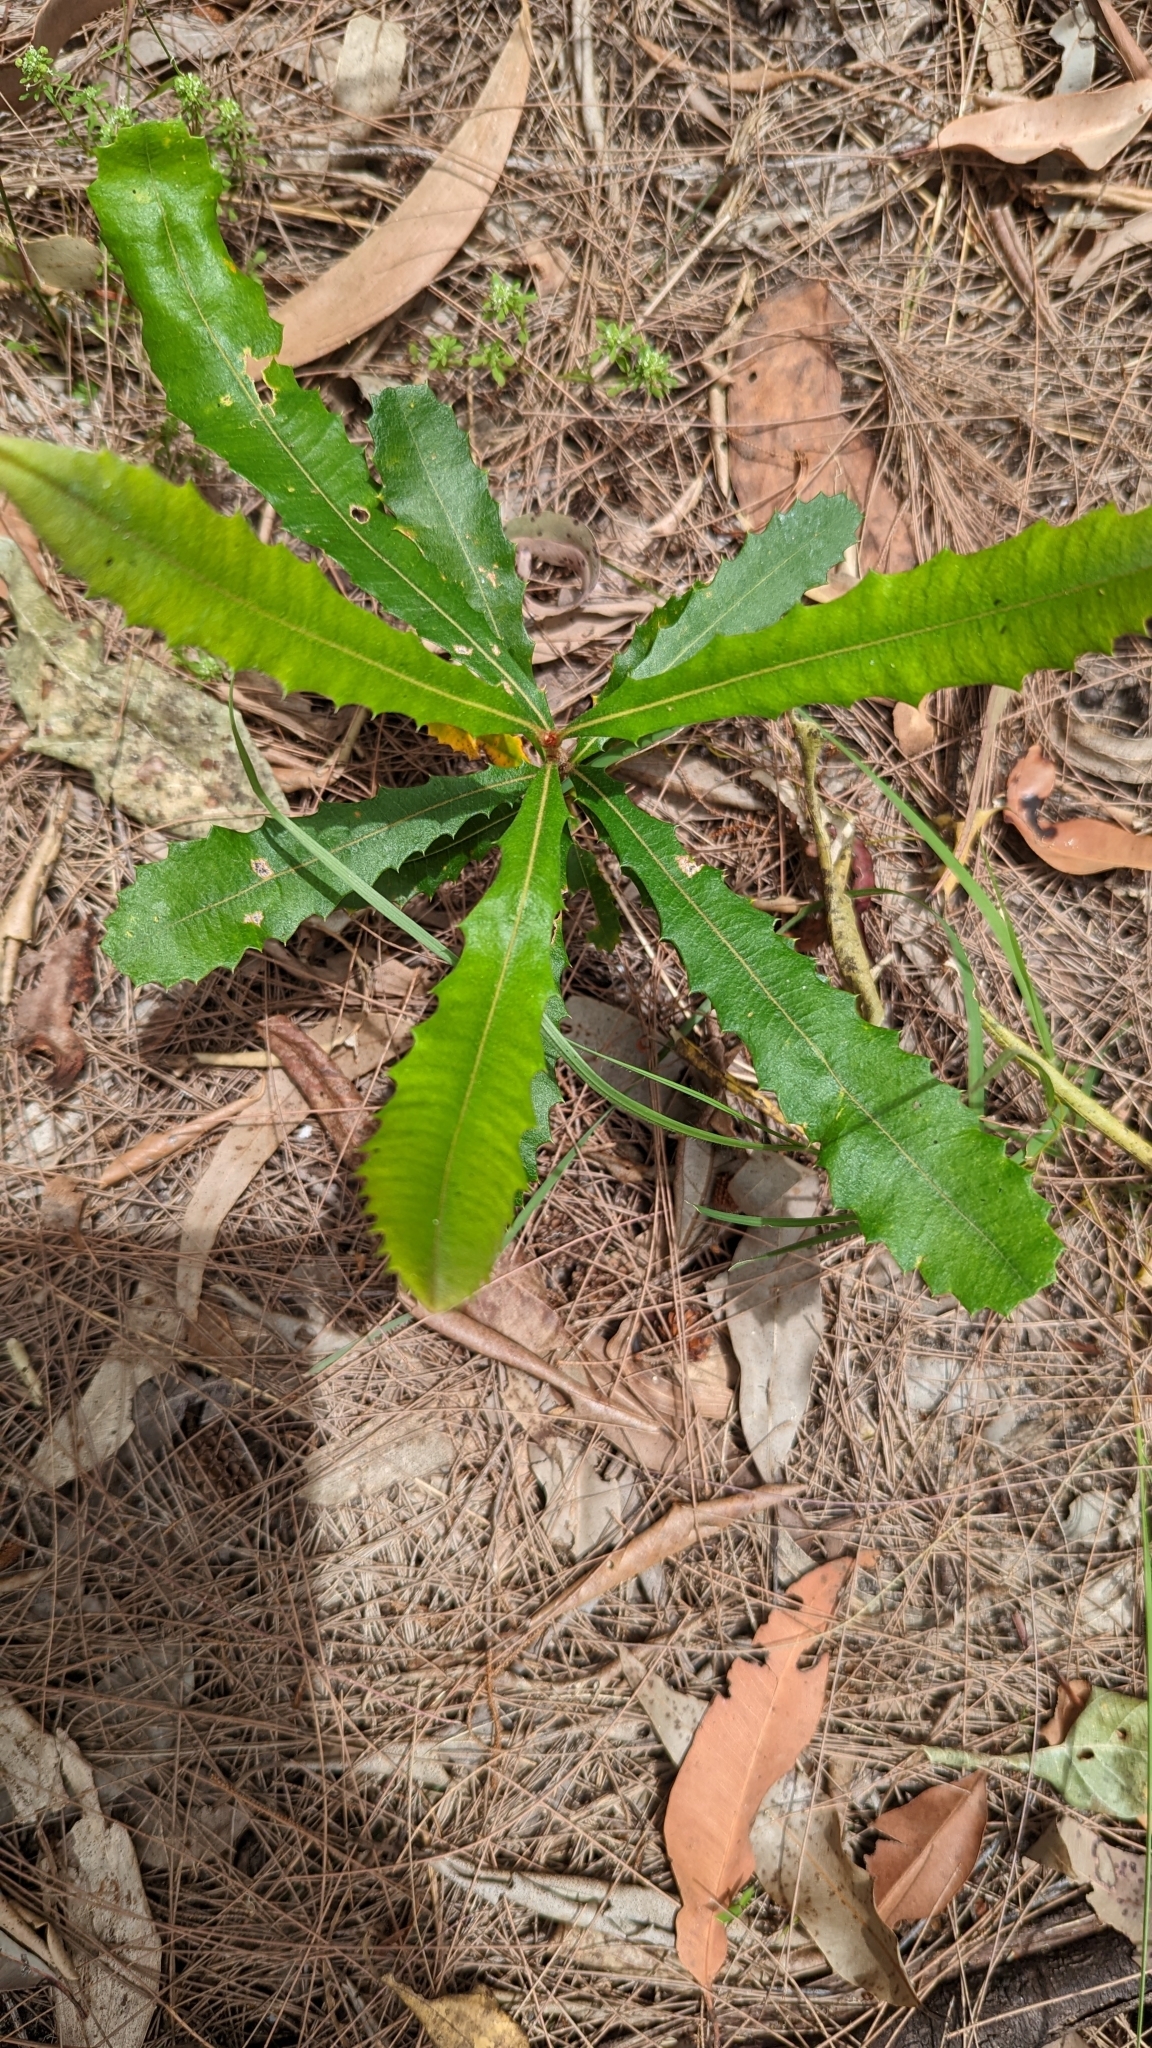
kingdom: Plantae
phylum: Tracheophyta
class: Magnoliopsida
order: Proteales
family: Proteaceae
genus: Banksia
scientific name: Banksia integrifolia
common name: White-honeysuckle
